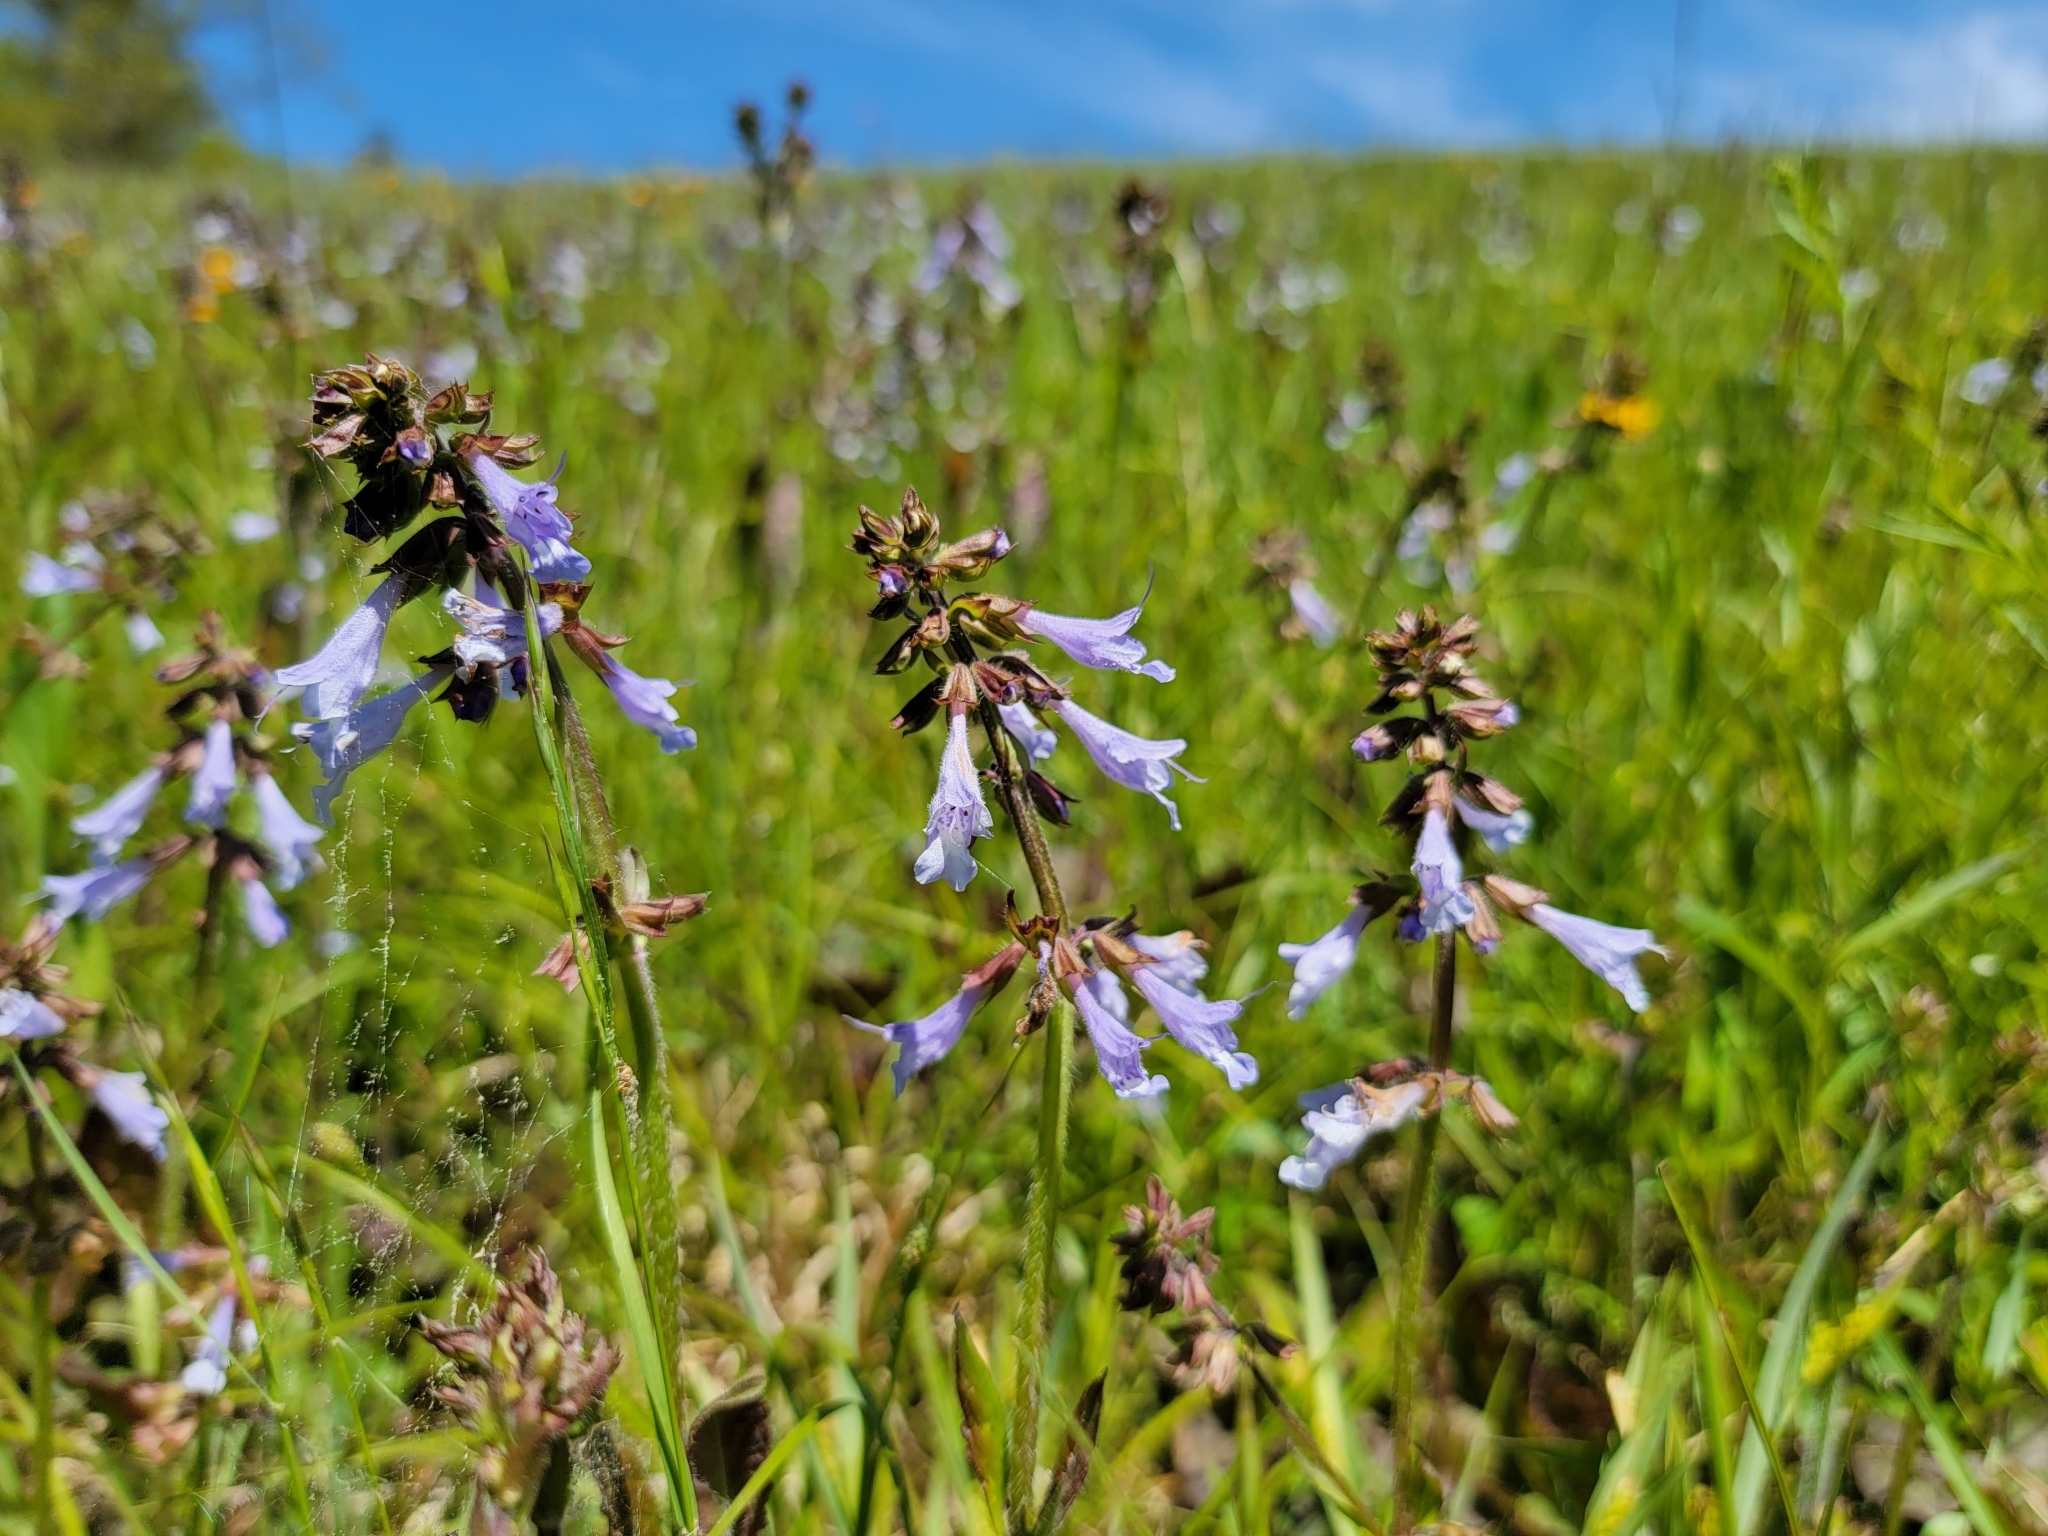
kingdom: Plantae
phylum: Tracheophyta
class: Magnoliopsida
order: Lamiales
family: Lamiaceae
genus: Salvia
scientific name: Salvia lyrata
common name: Cancerweed
